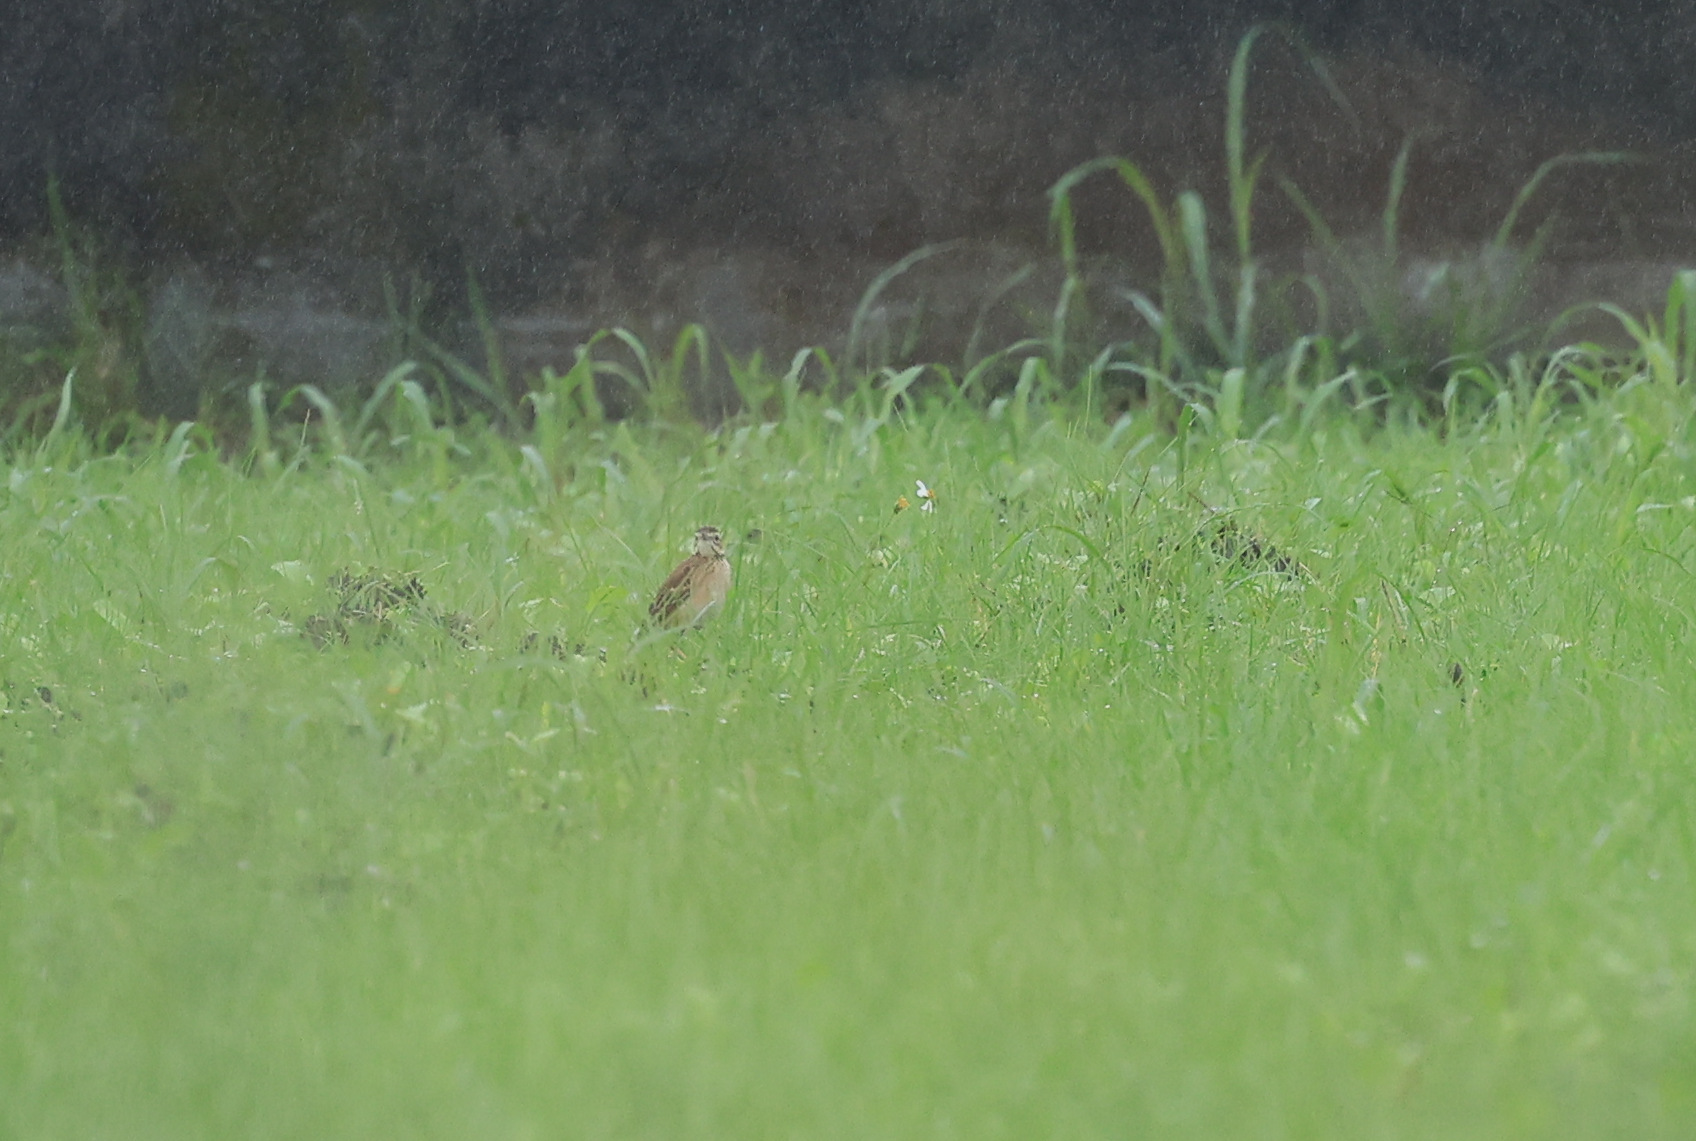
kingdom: Animalia
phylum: Chordata
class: Aves
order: Passeriformes
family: Motacillidae
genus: Anthus
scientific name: Anthus richardi
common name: Richard's pipit
